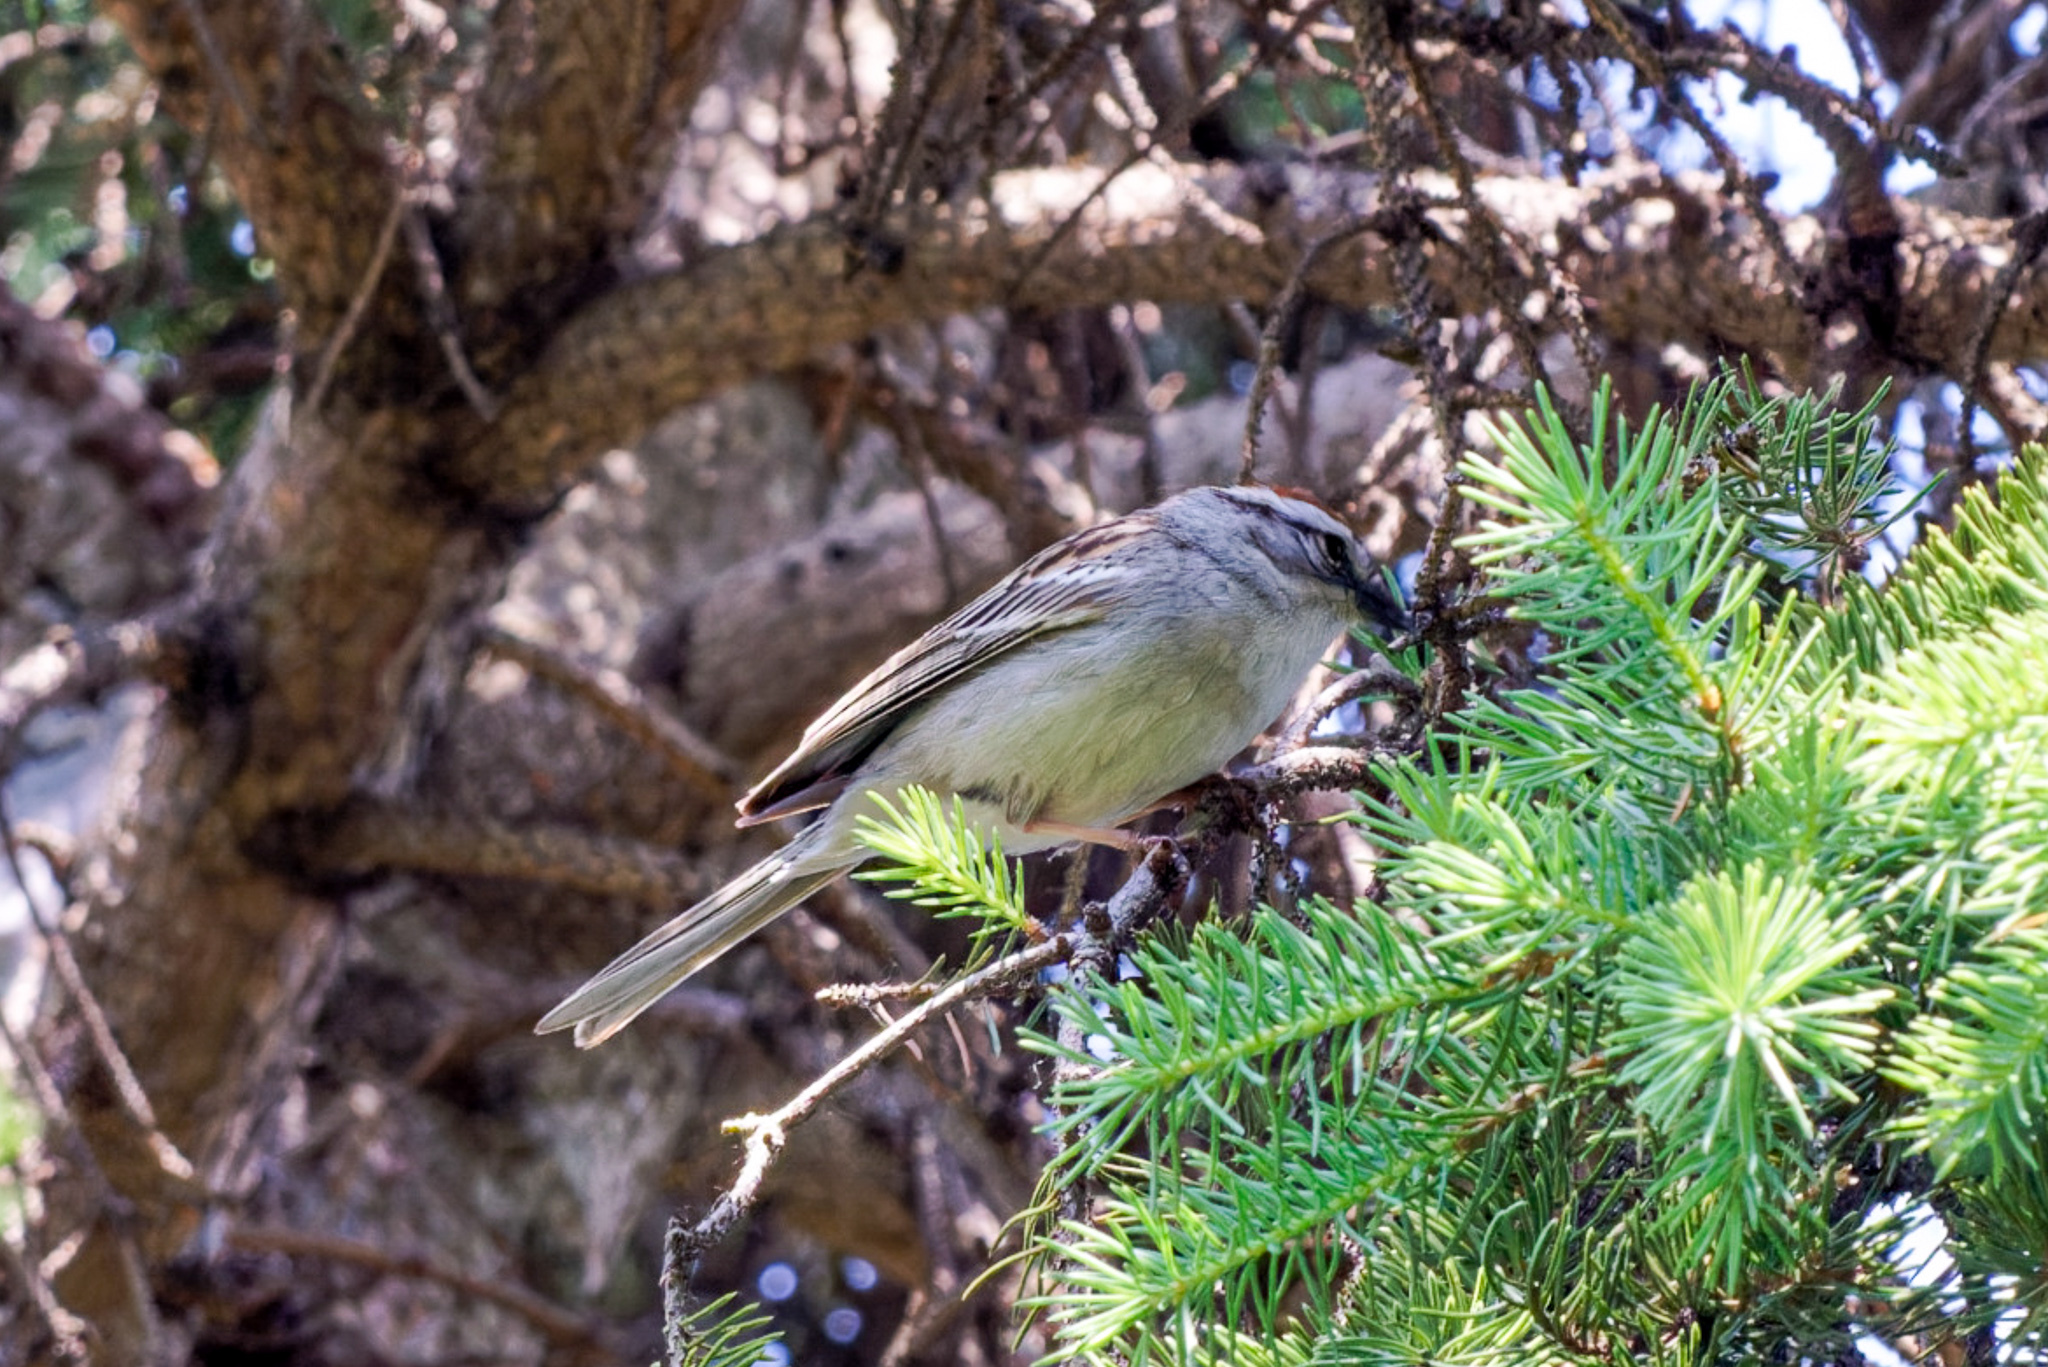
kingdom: Animalia
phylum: Chordata
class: Aves
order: Passeriformes
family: Passerellidae
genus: Spizella
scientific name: Spizella passerina
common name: Chipping sparrow
